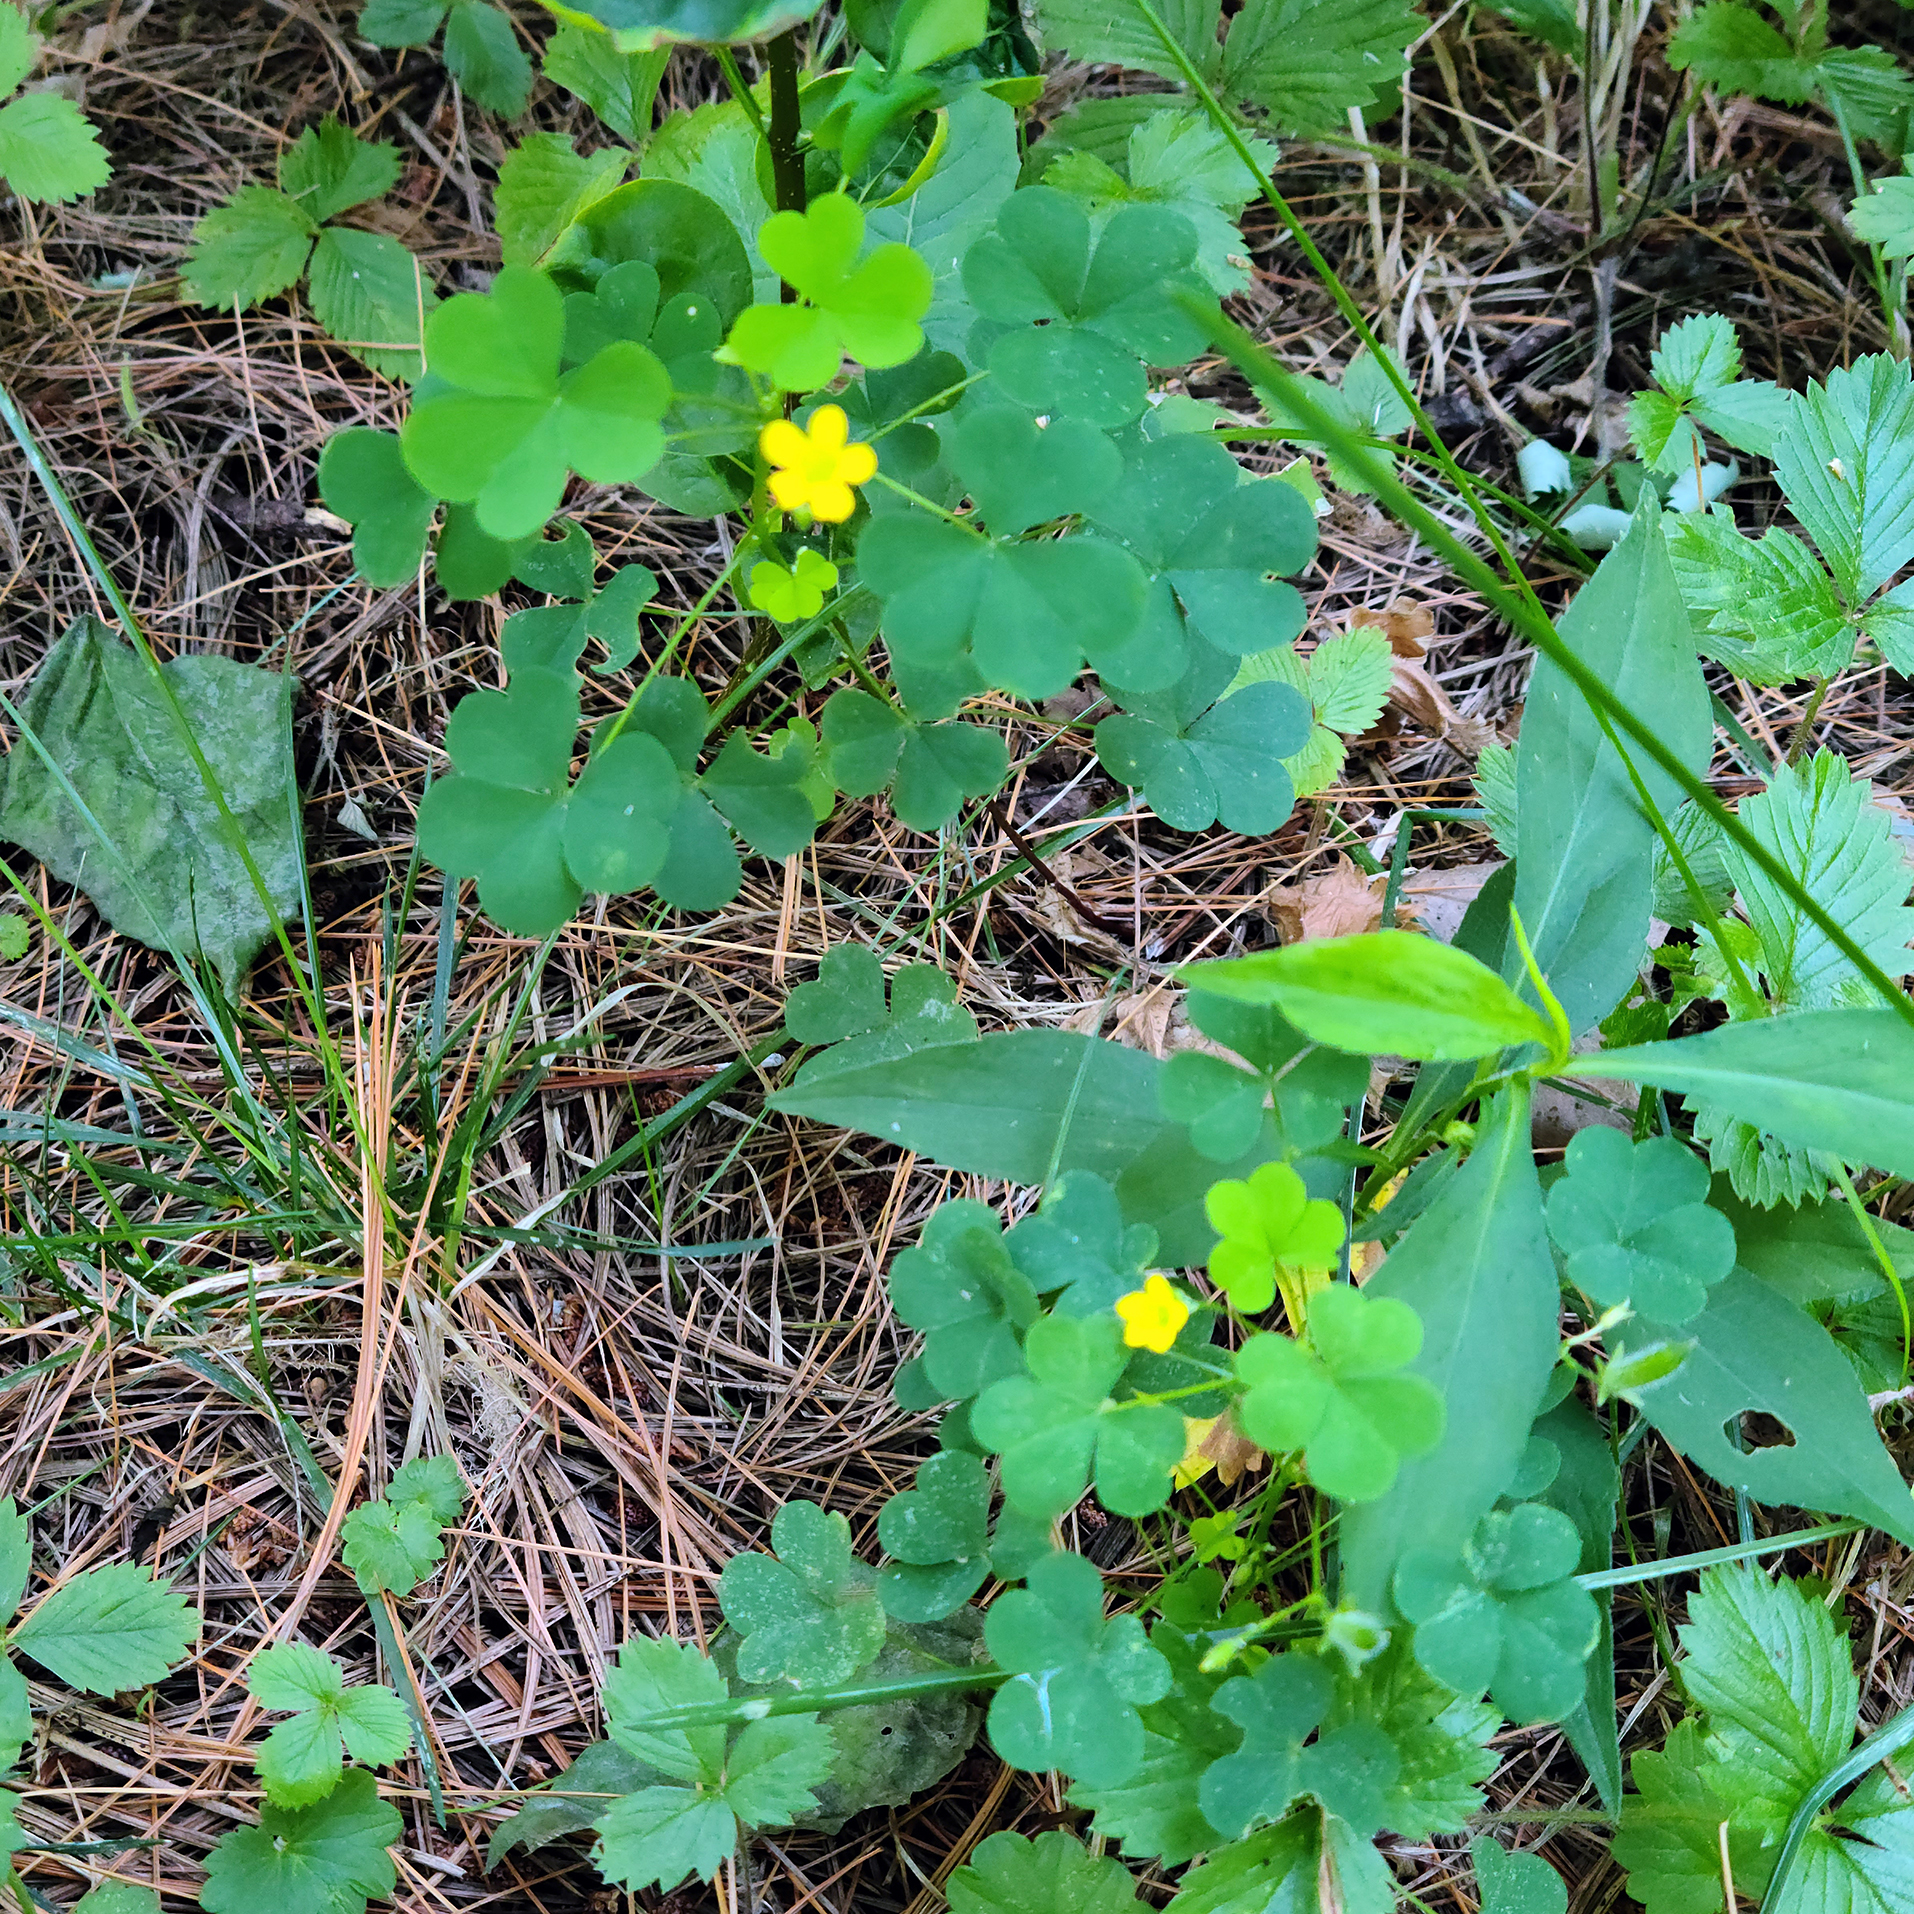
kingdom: Plantae
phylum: Tracheophyta
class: Magnoliopsida
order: Oxalidales
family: Oxalidaceae
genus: Oxalis
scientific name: Oxalis stricta
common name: Upright yellow-sorrel
